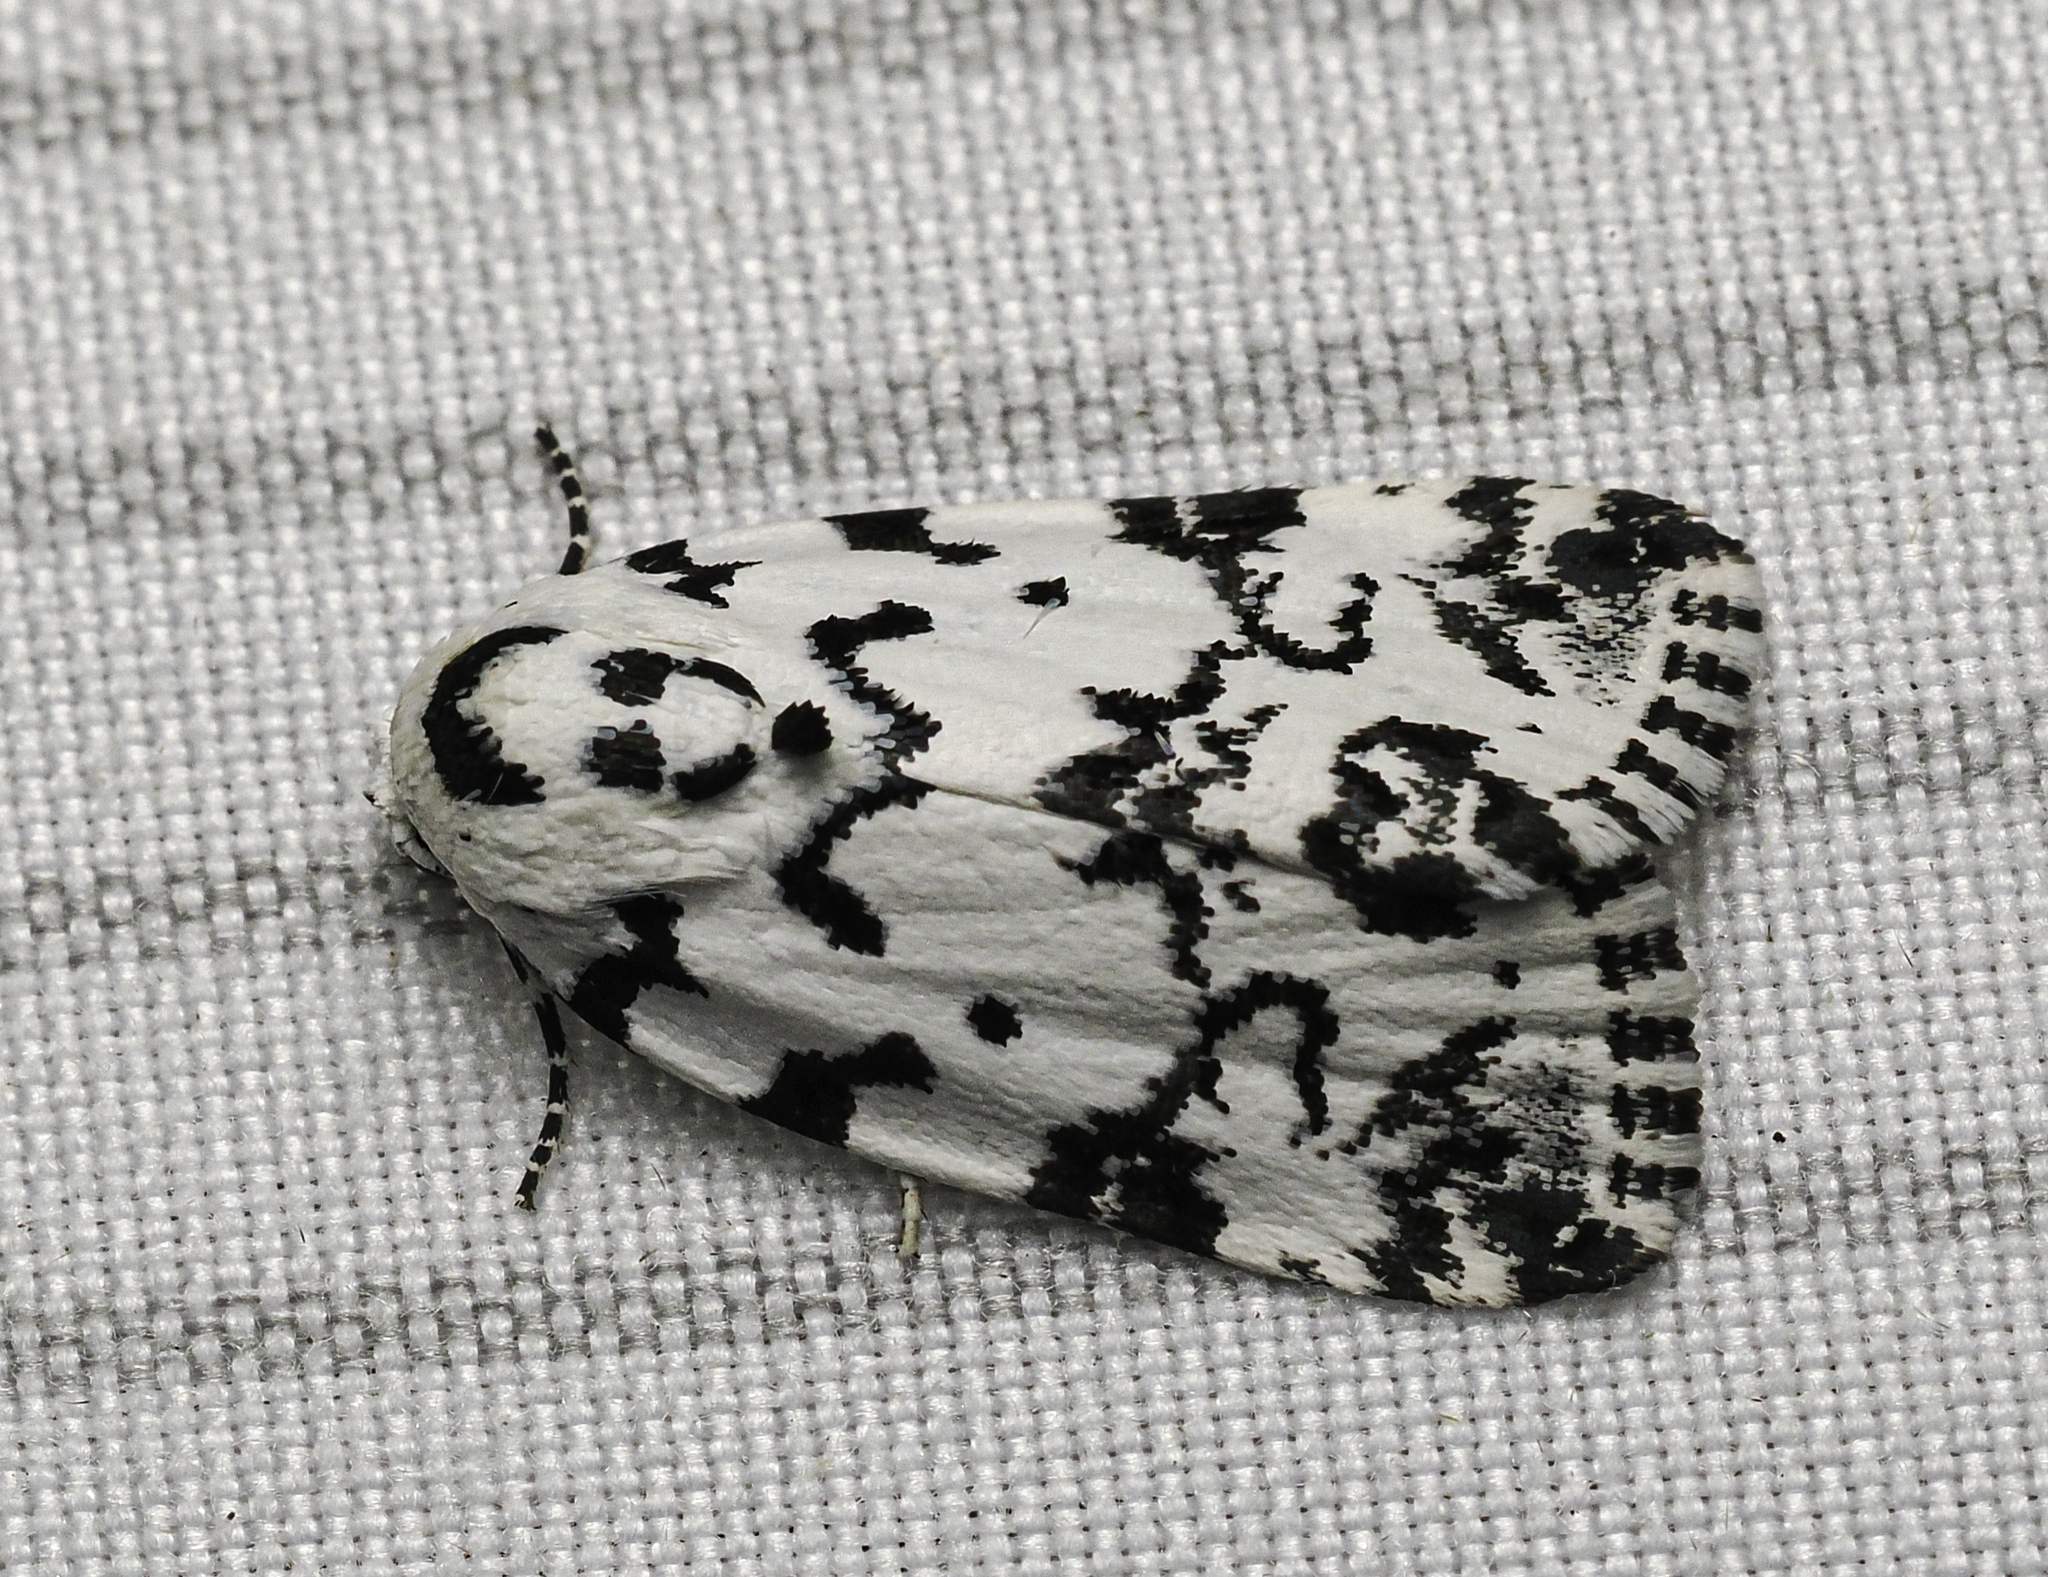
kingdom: Animalia
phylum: Arthropoda
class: Insecta
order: Lepidoptera
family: Noctuidae
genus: Polygrammate
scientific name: Polygrammate hebraeicum
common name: Hebrew moth
